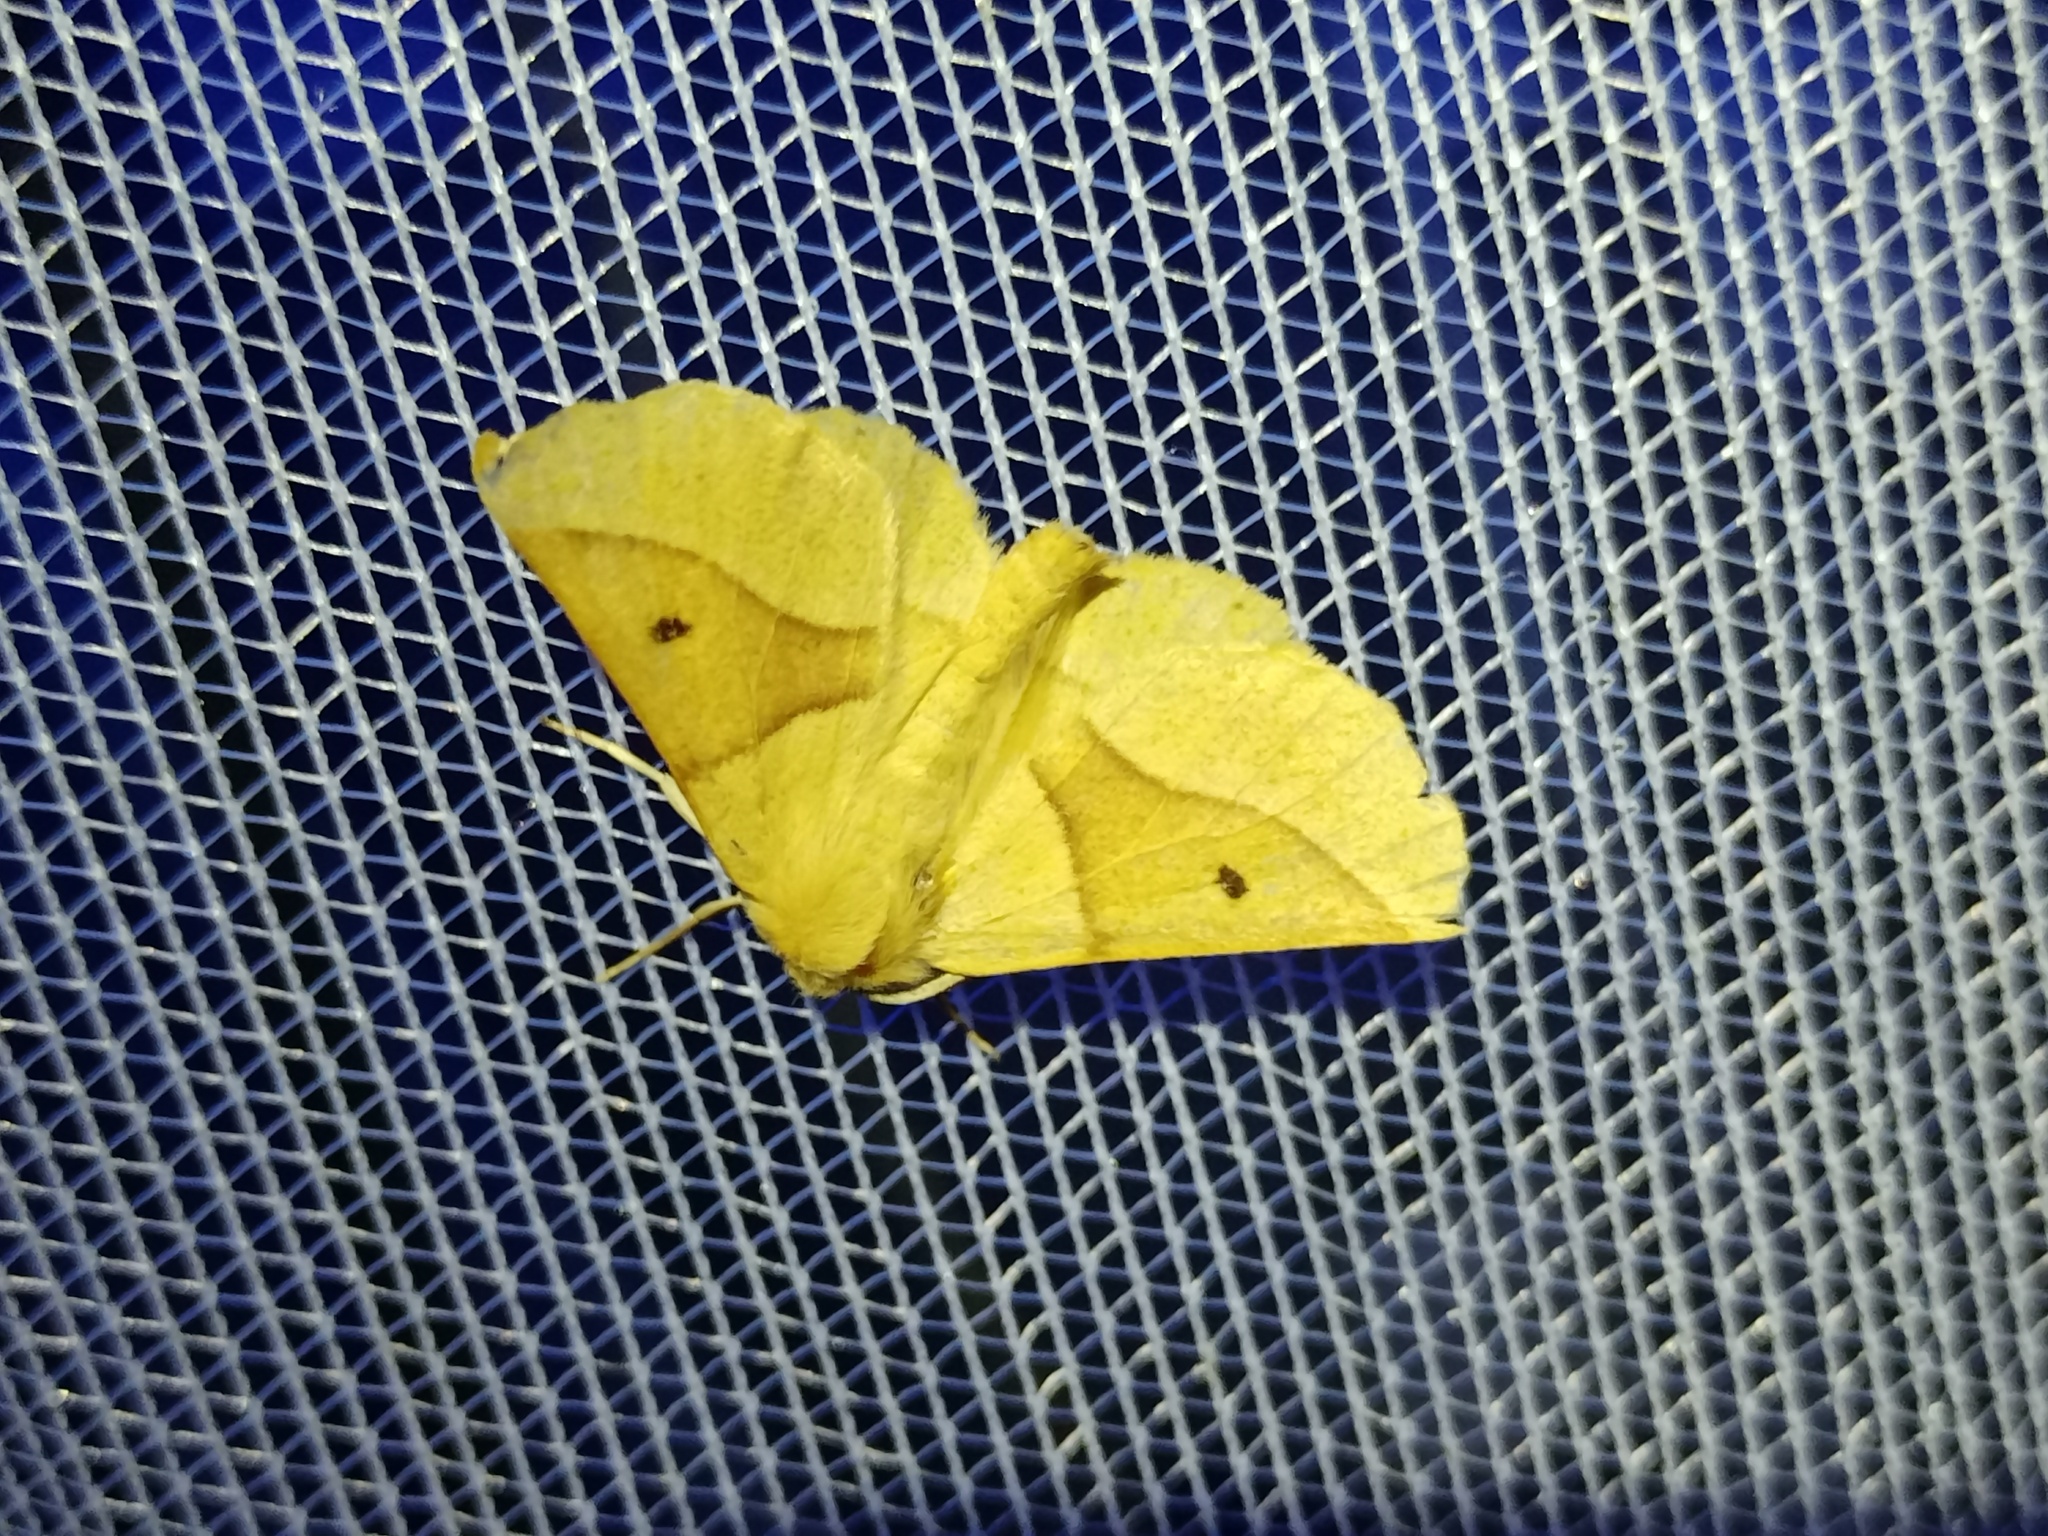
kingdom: Animalia
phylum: Arthropoda
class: Insecta
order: Lepidoptera
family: Geometridae
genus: Crocallis
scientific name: Crocallis elinguaria
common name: Scalloped oak
